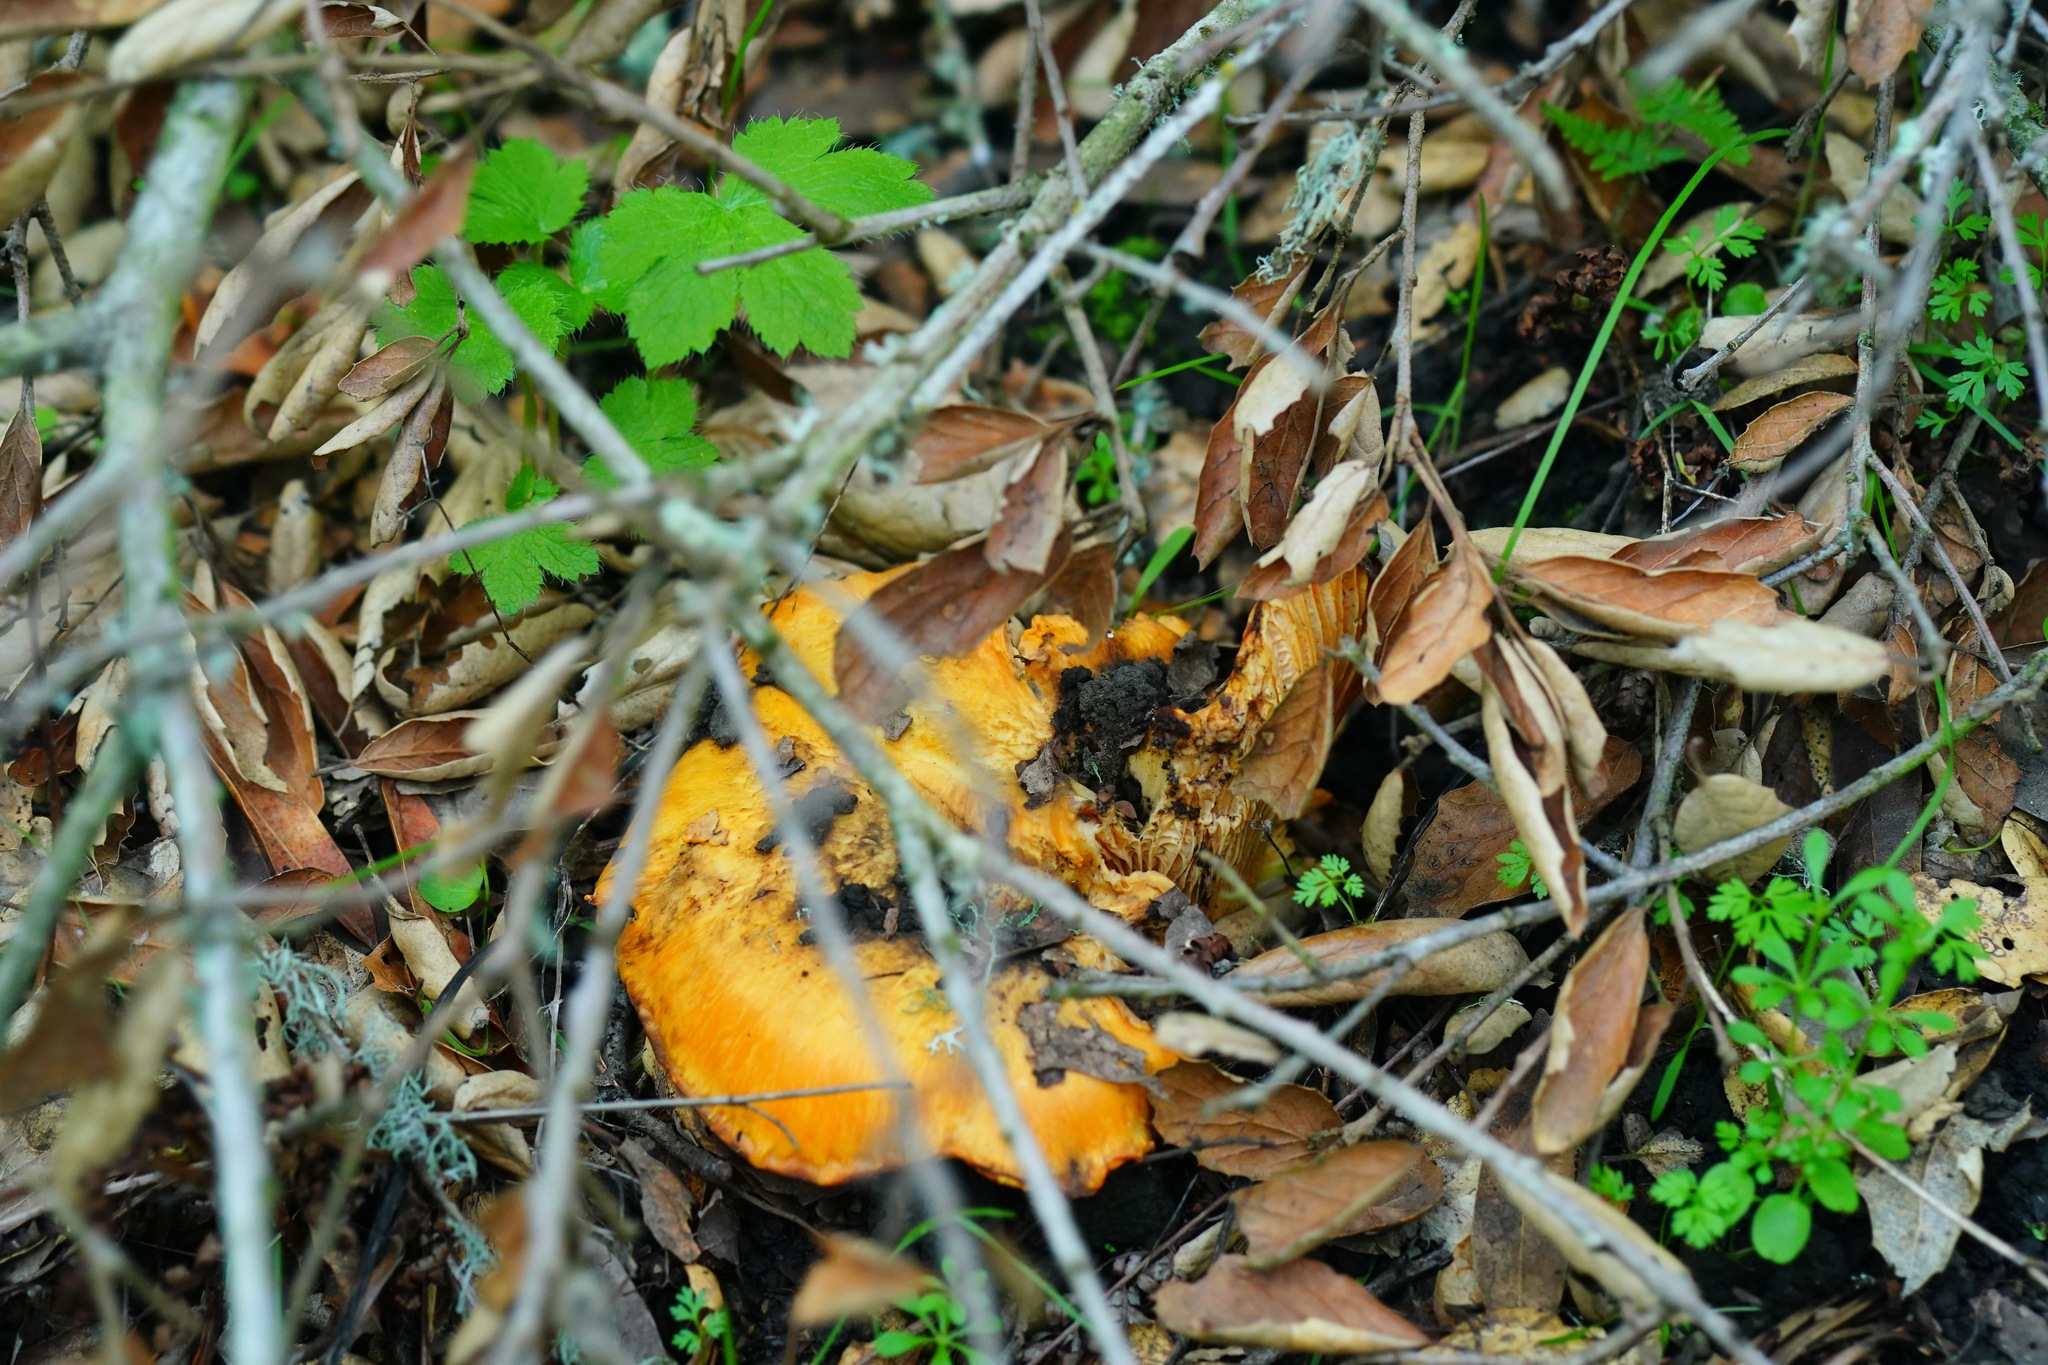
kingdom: Fungi
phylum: Basidiomycota
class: Agaricomycetes
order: Cantharellales
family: Hydnaceae
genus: Cantharellus
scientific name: Cantharellus californicus
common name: California golden chanterelle
